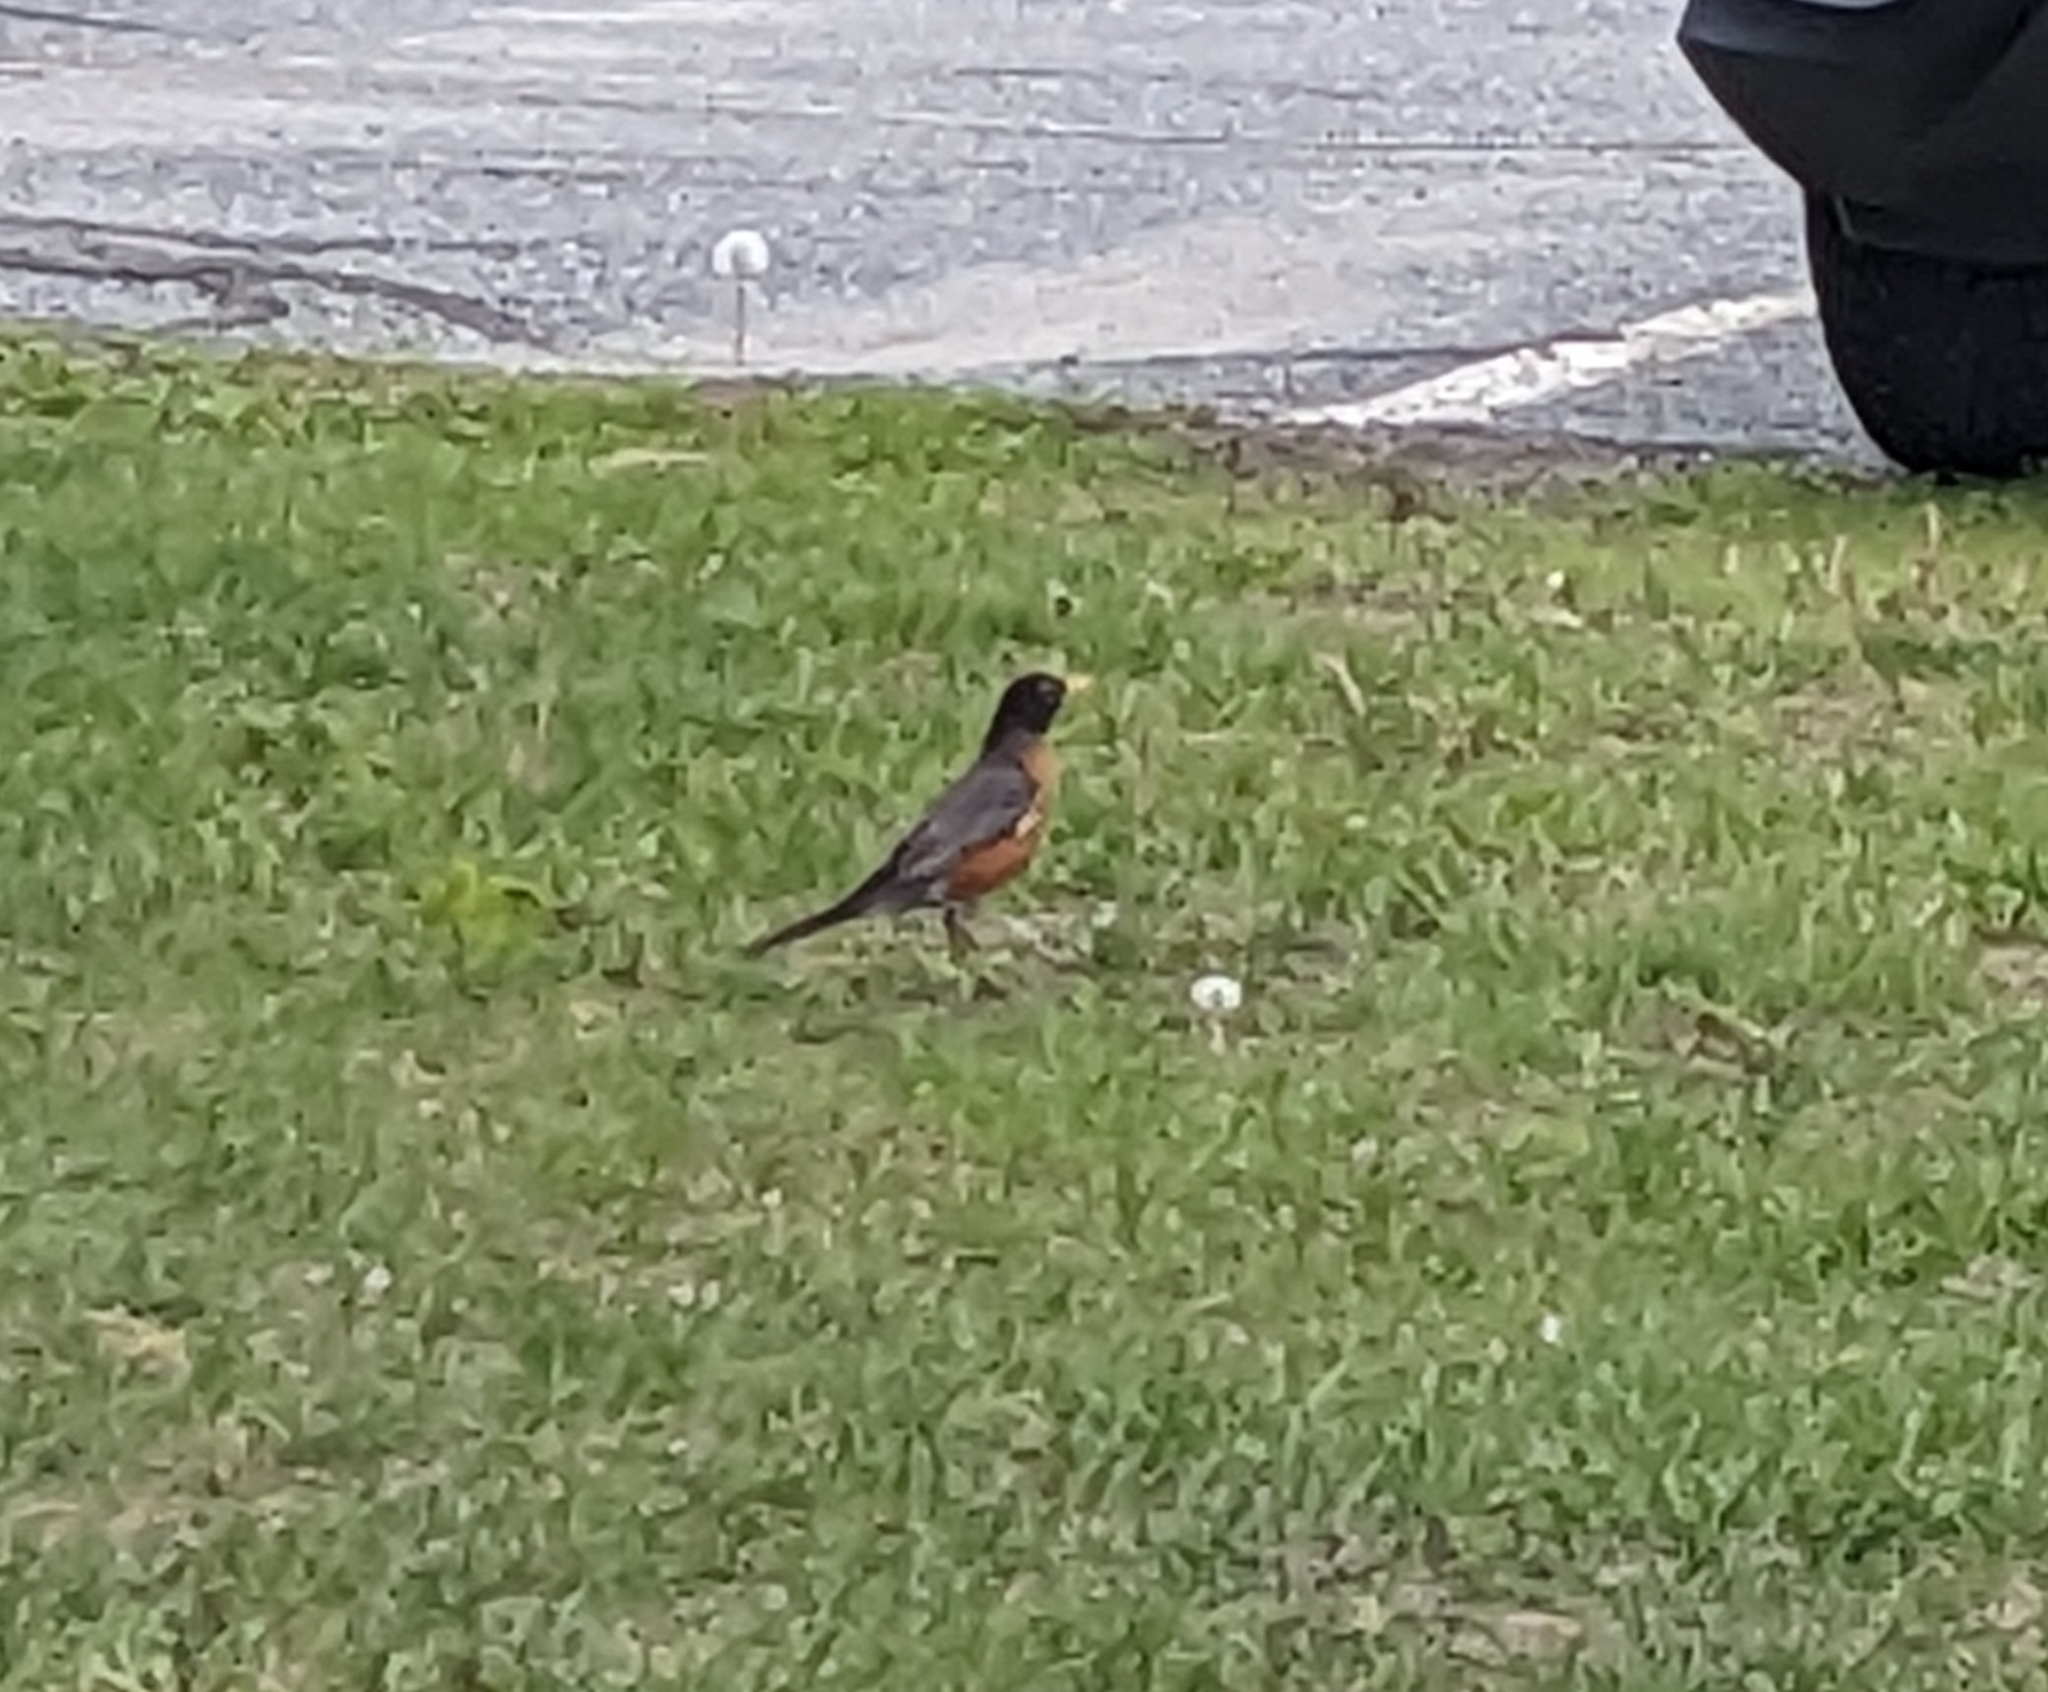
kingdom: Animalia
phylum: Chordata
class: Aves
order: Passeriformes
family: Turdidae
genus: Turdus
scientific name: Turdus migratorius
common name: American robin
